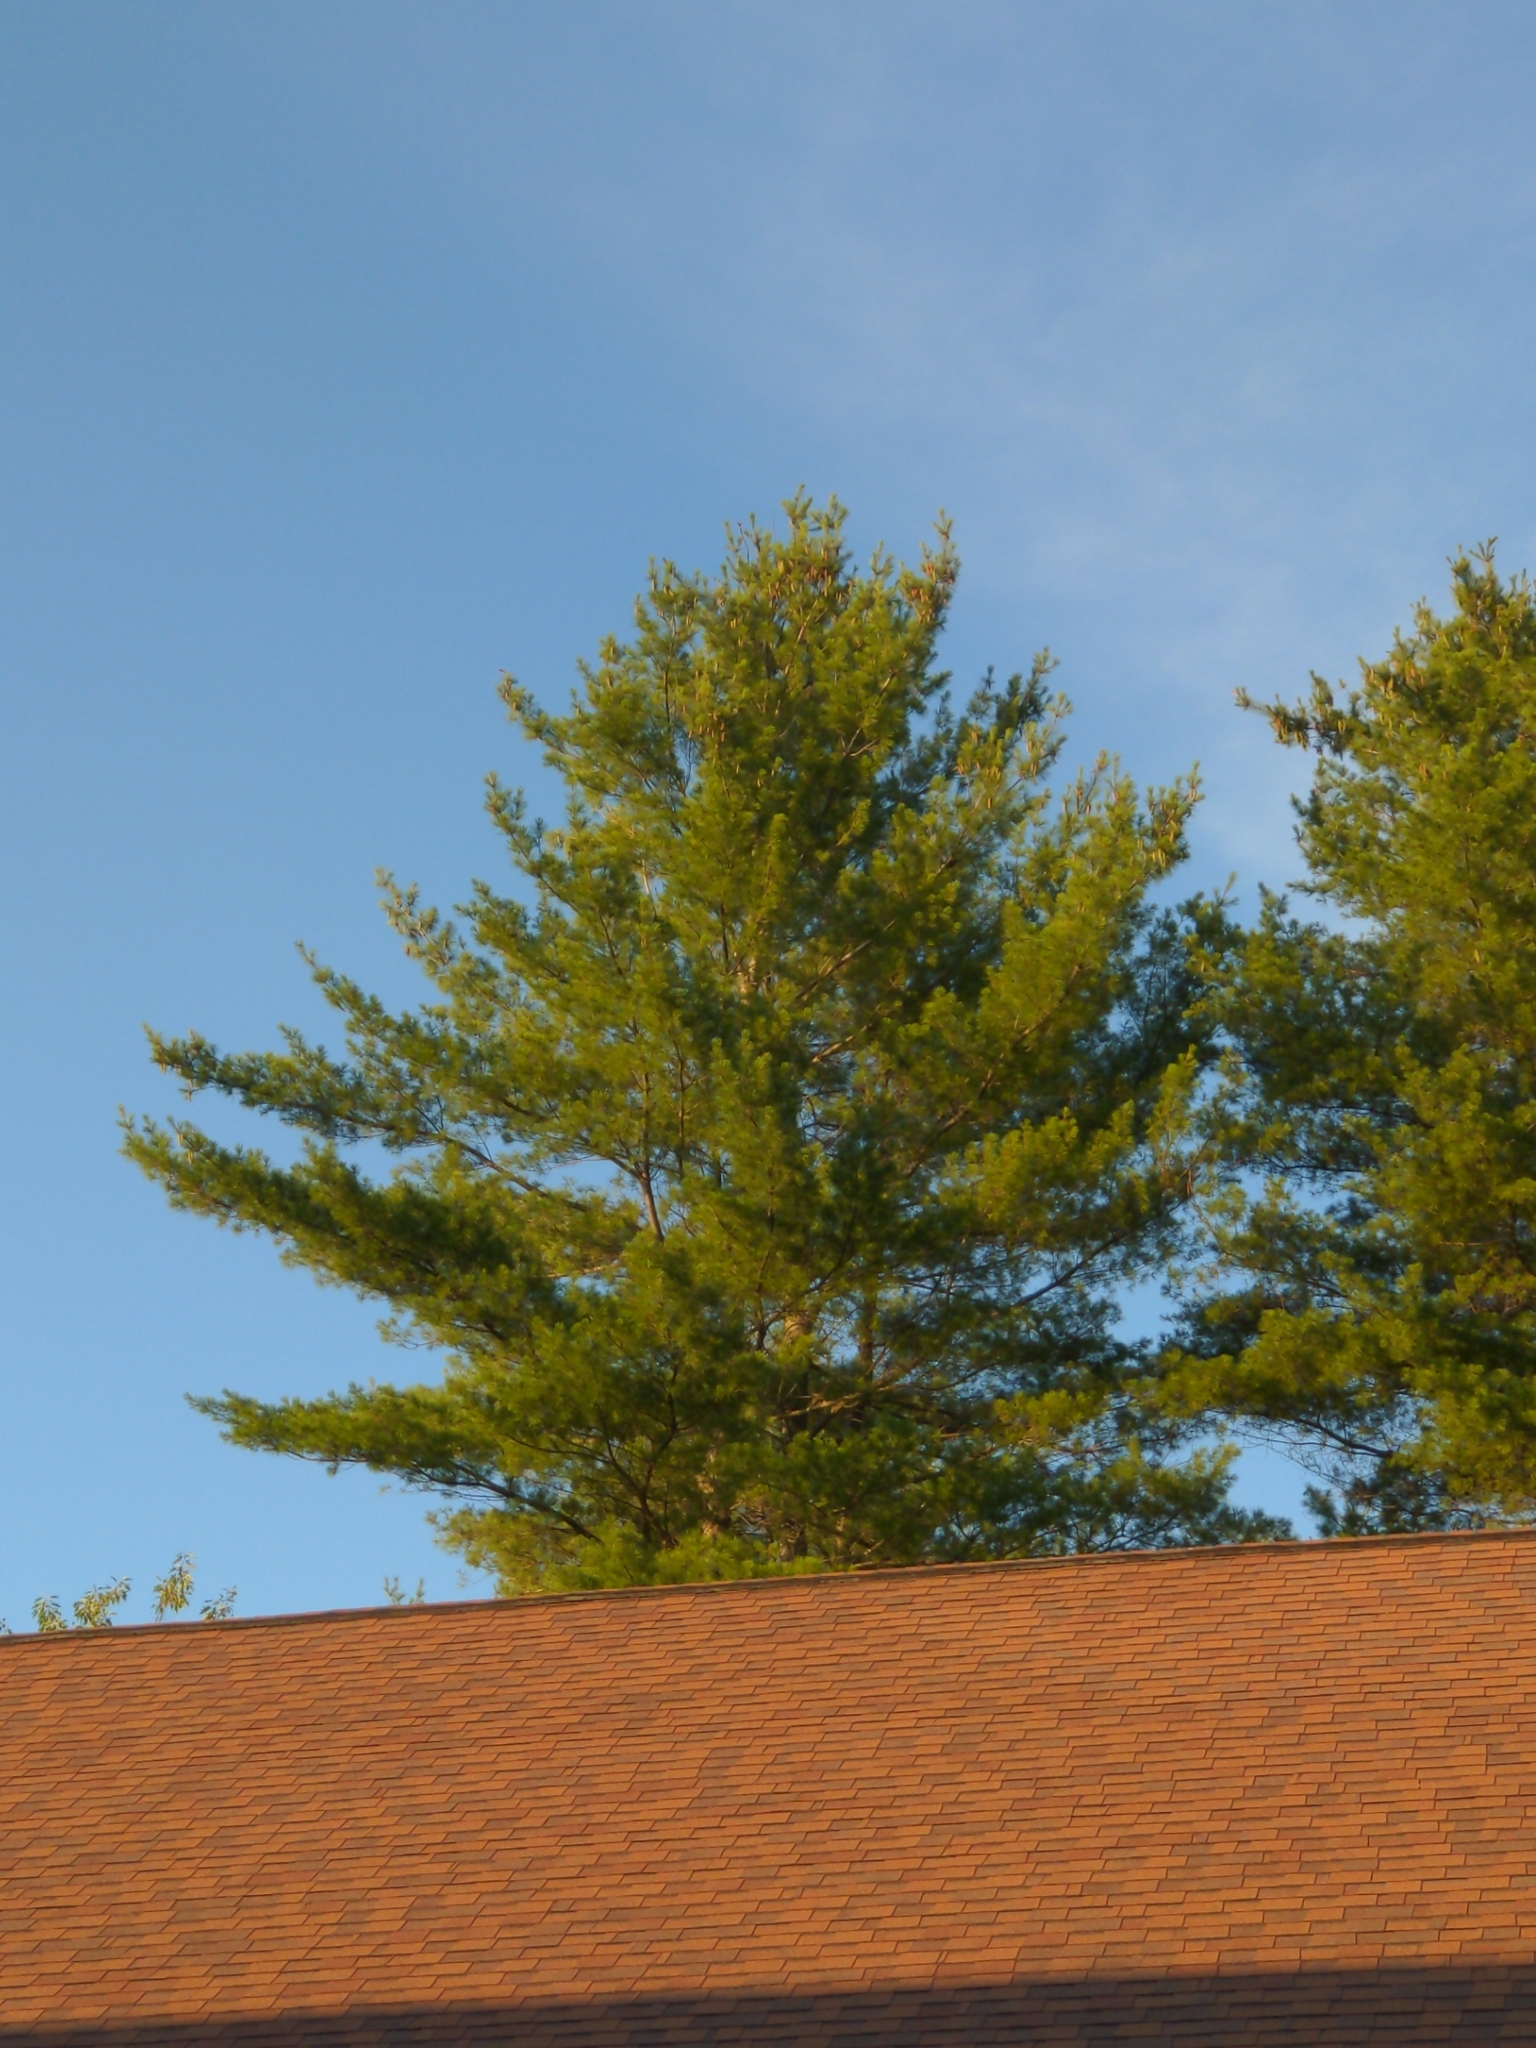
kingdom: Plantae
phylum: Tracheophyta
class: Pinopsida
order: Pinales
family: Pinaceae
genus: Pinus
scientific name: Pinus strobus
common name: Weymouth pine
